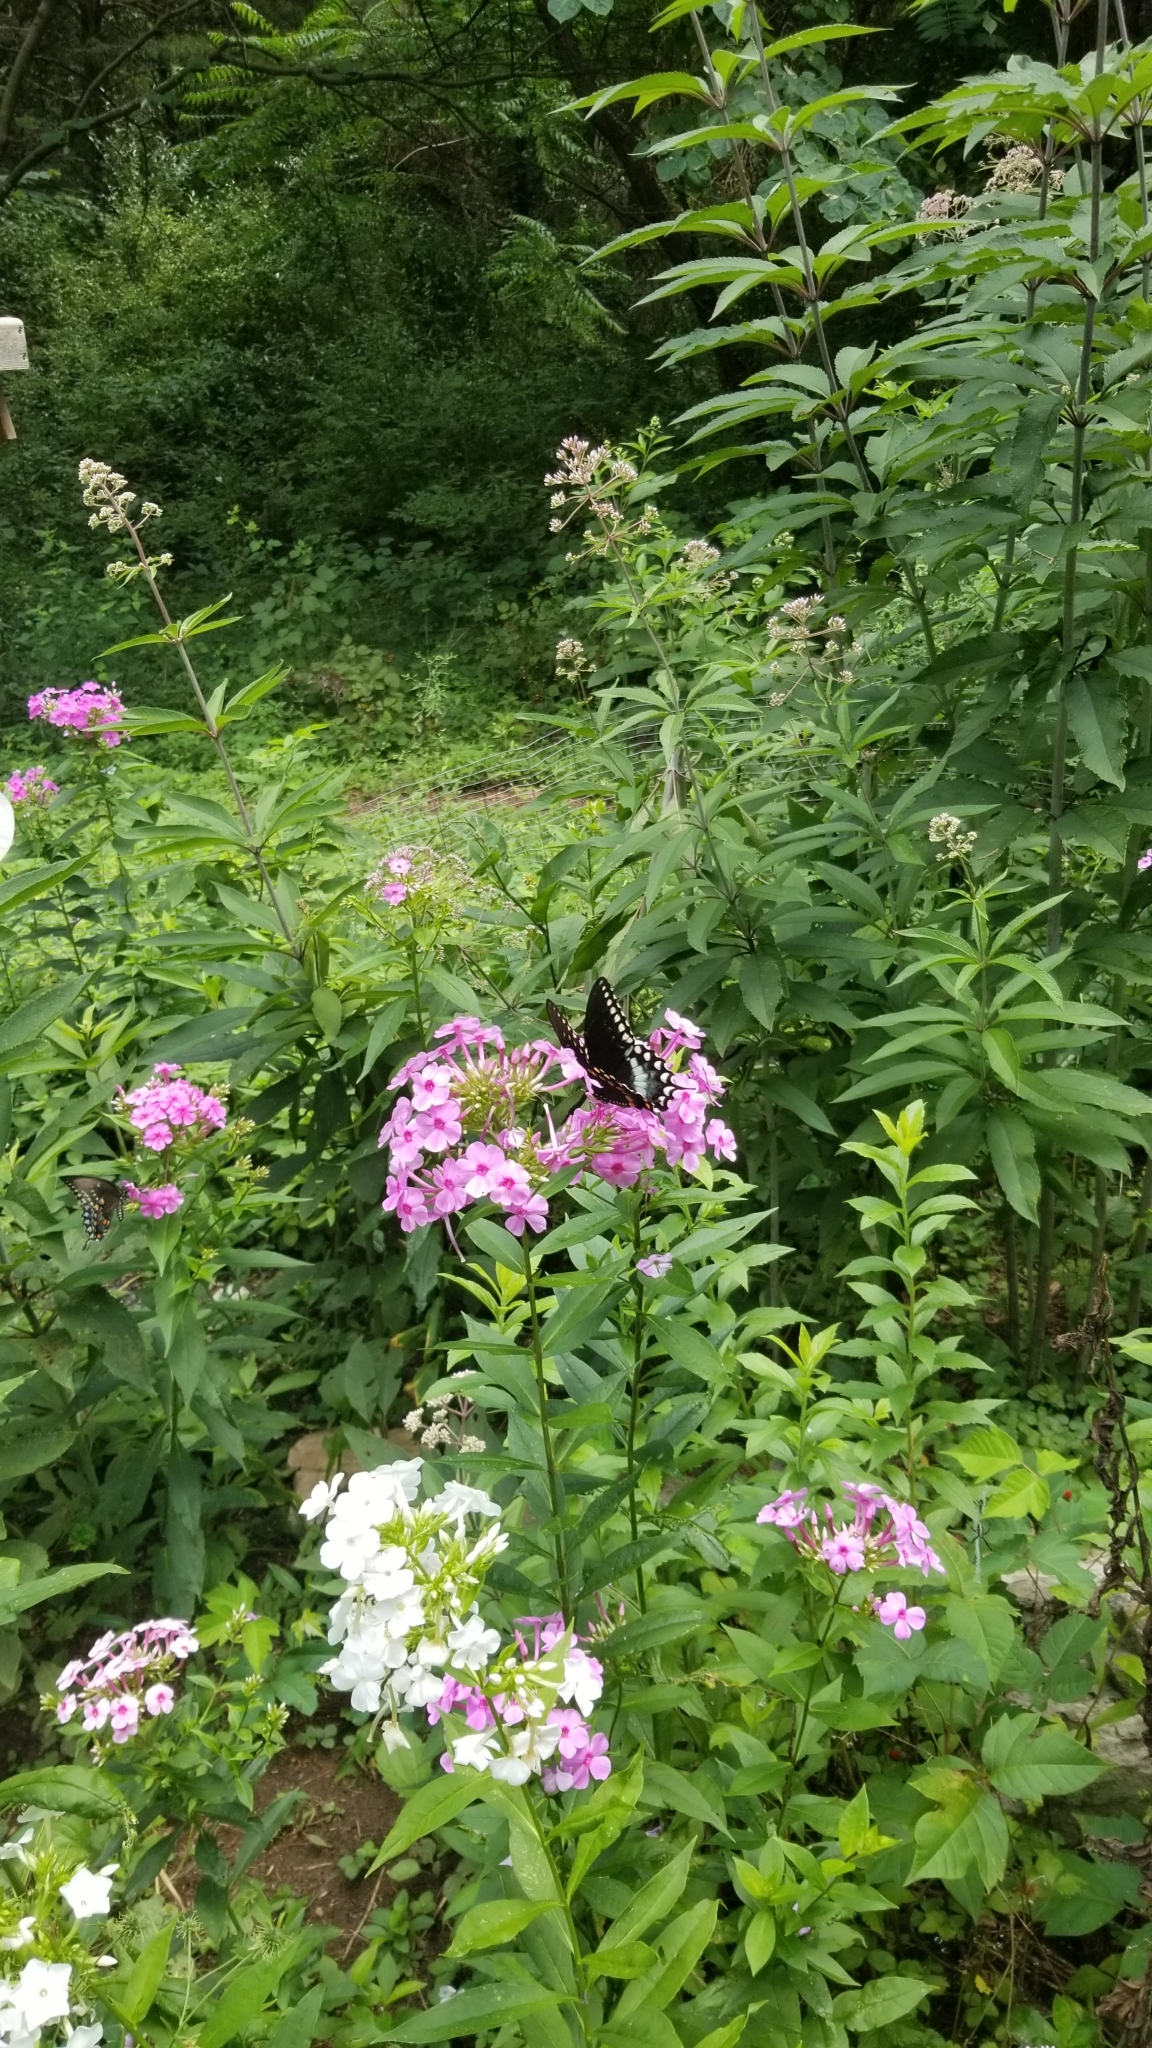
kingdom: Animalia
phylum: Arthropoda
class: Insecta
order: Lepidoptera
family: Papilionidae
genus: Papilio
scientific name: Papilio troilus
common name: Spicebush swallowtail
